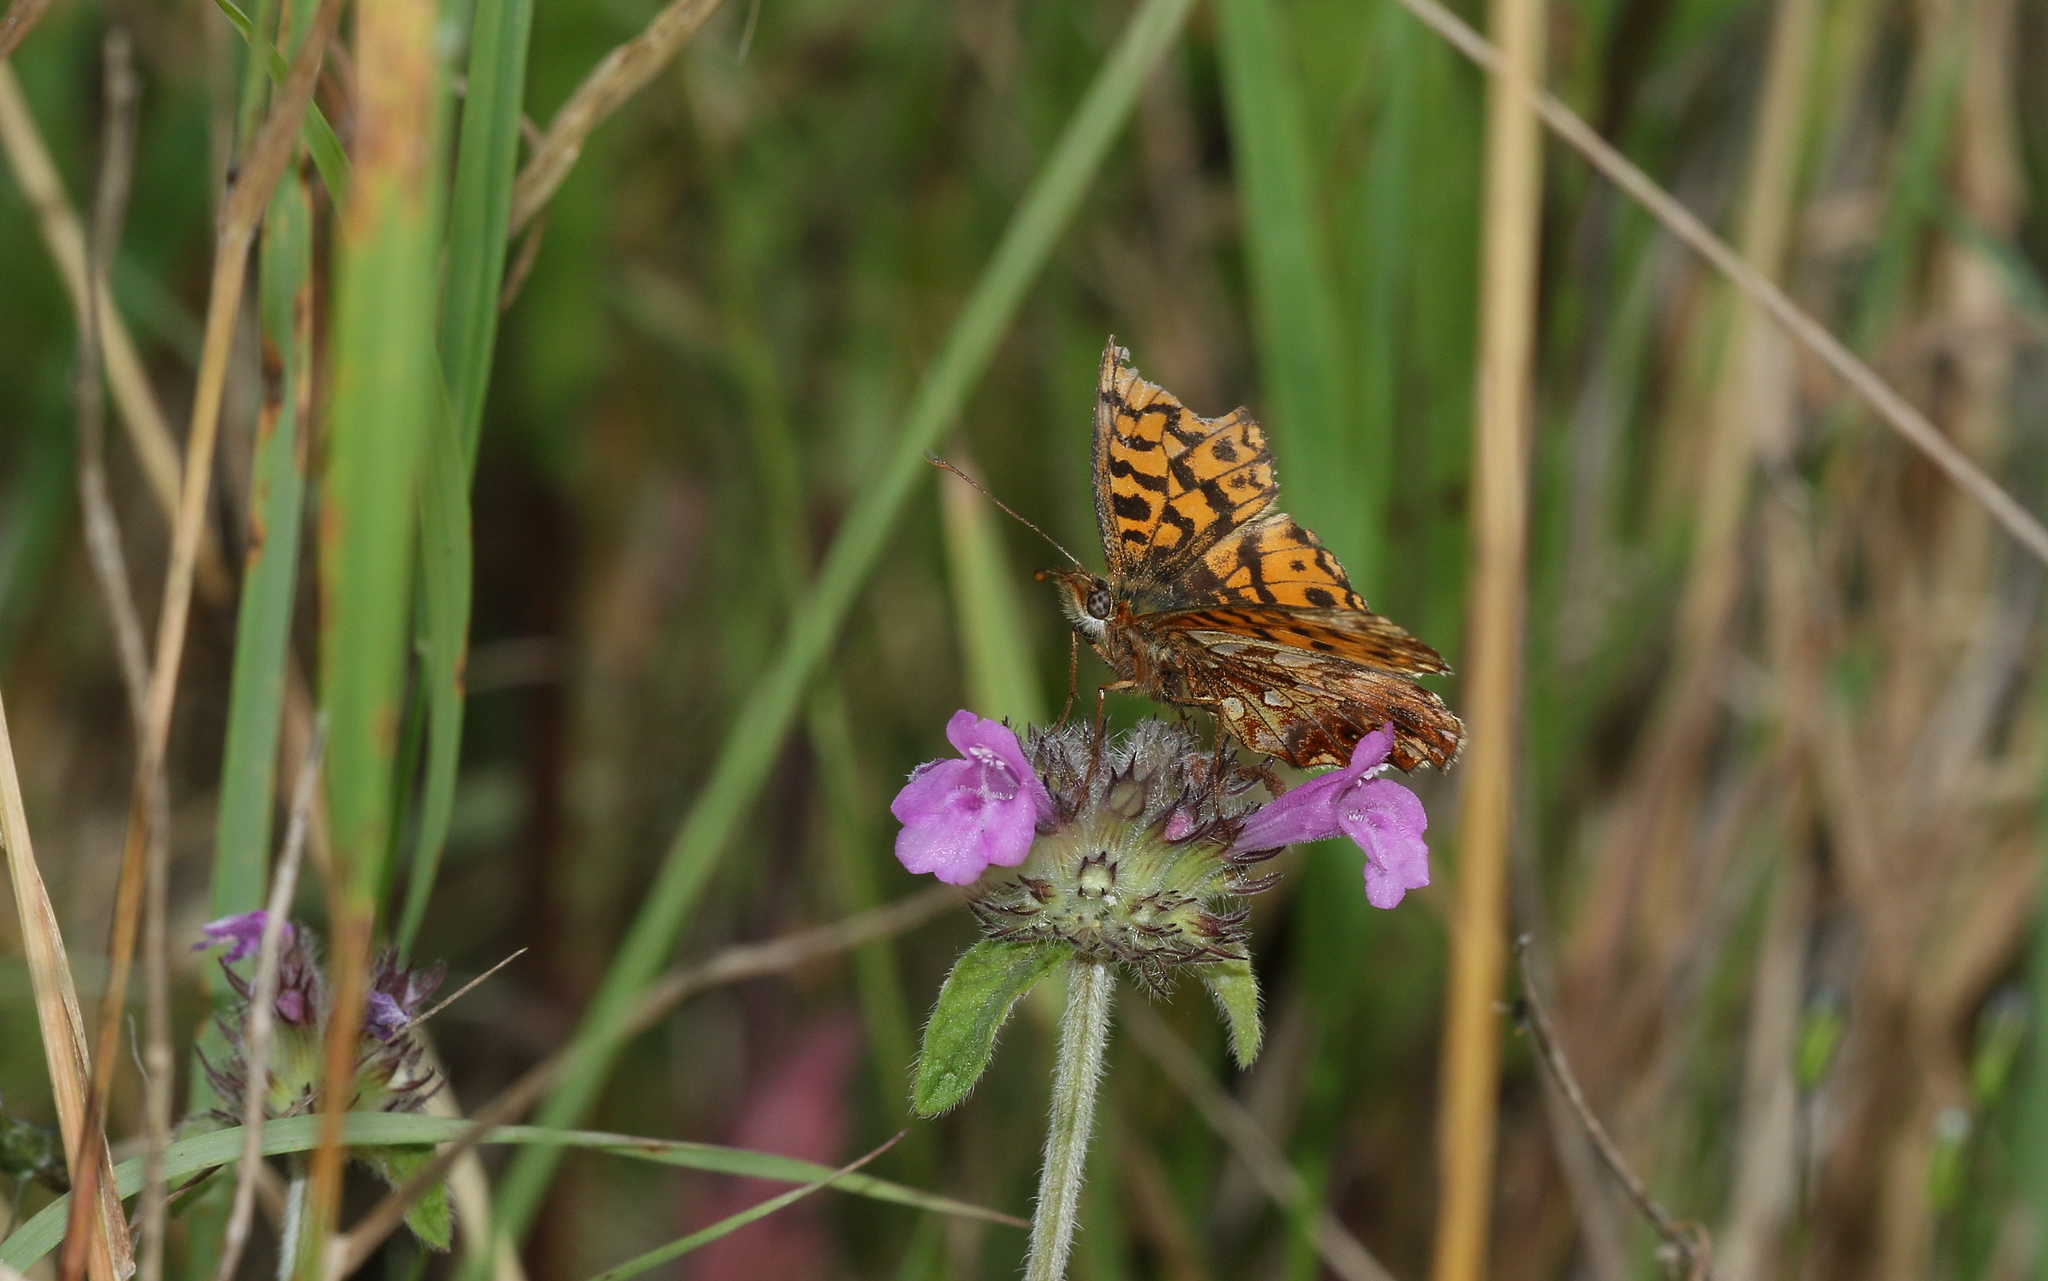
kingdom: Animalia
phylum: Arthropoda
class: Insecta
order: Lepidoptera
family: Nymphalidae
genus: Boloria
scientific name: Boloria dia
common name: Weaver's fritillary
